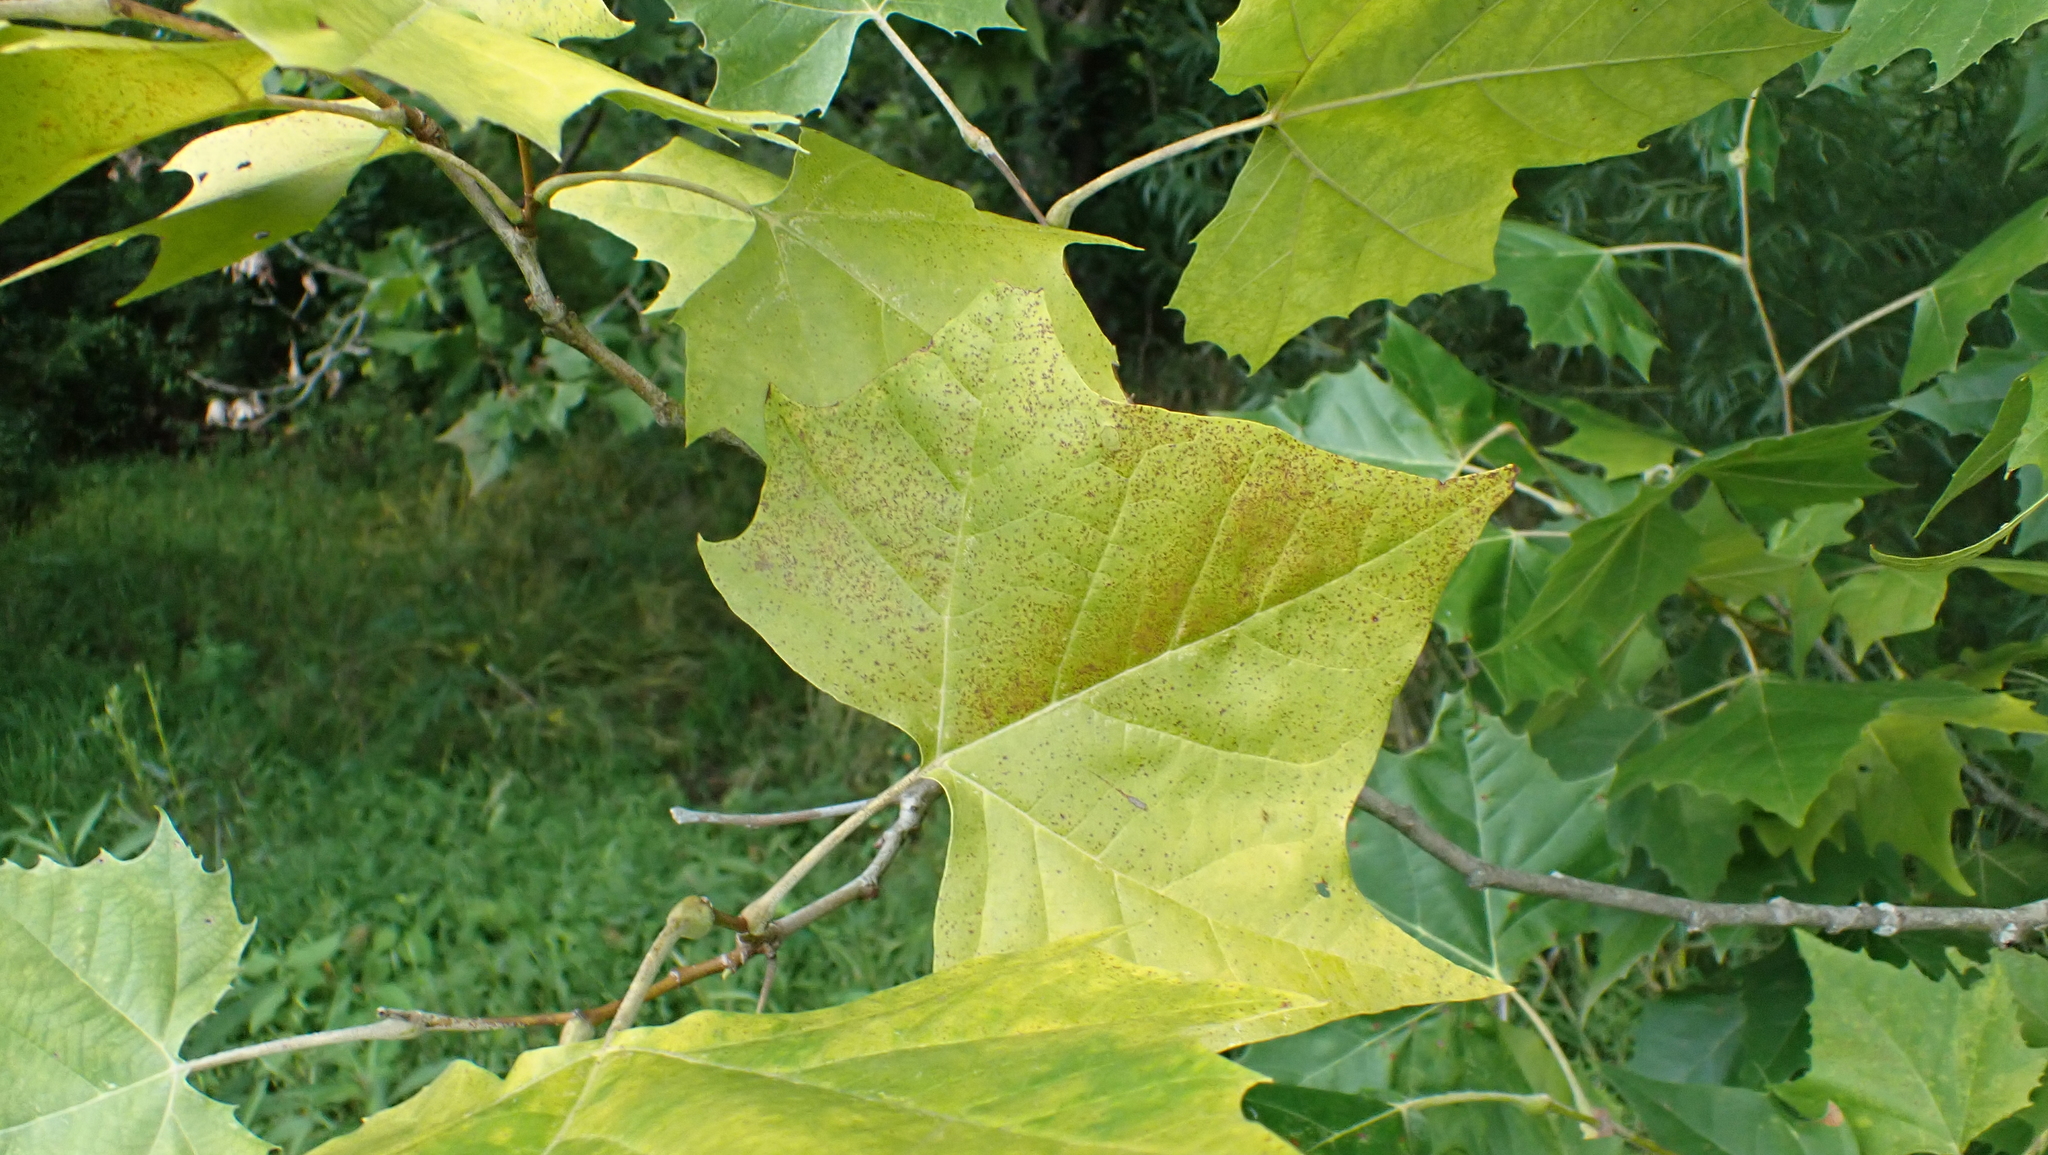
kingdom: Plantae
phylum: Tracheophyta
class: Magnoliopsida
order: Proteales
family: Platanaceae
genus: Platanus
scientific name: Platanus occidentalis
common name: American sycamore
